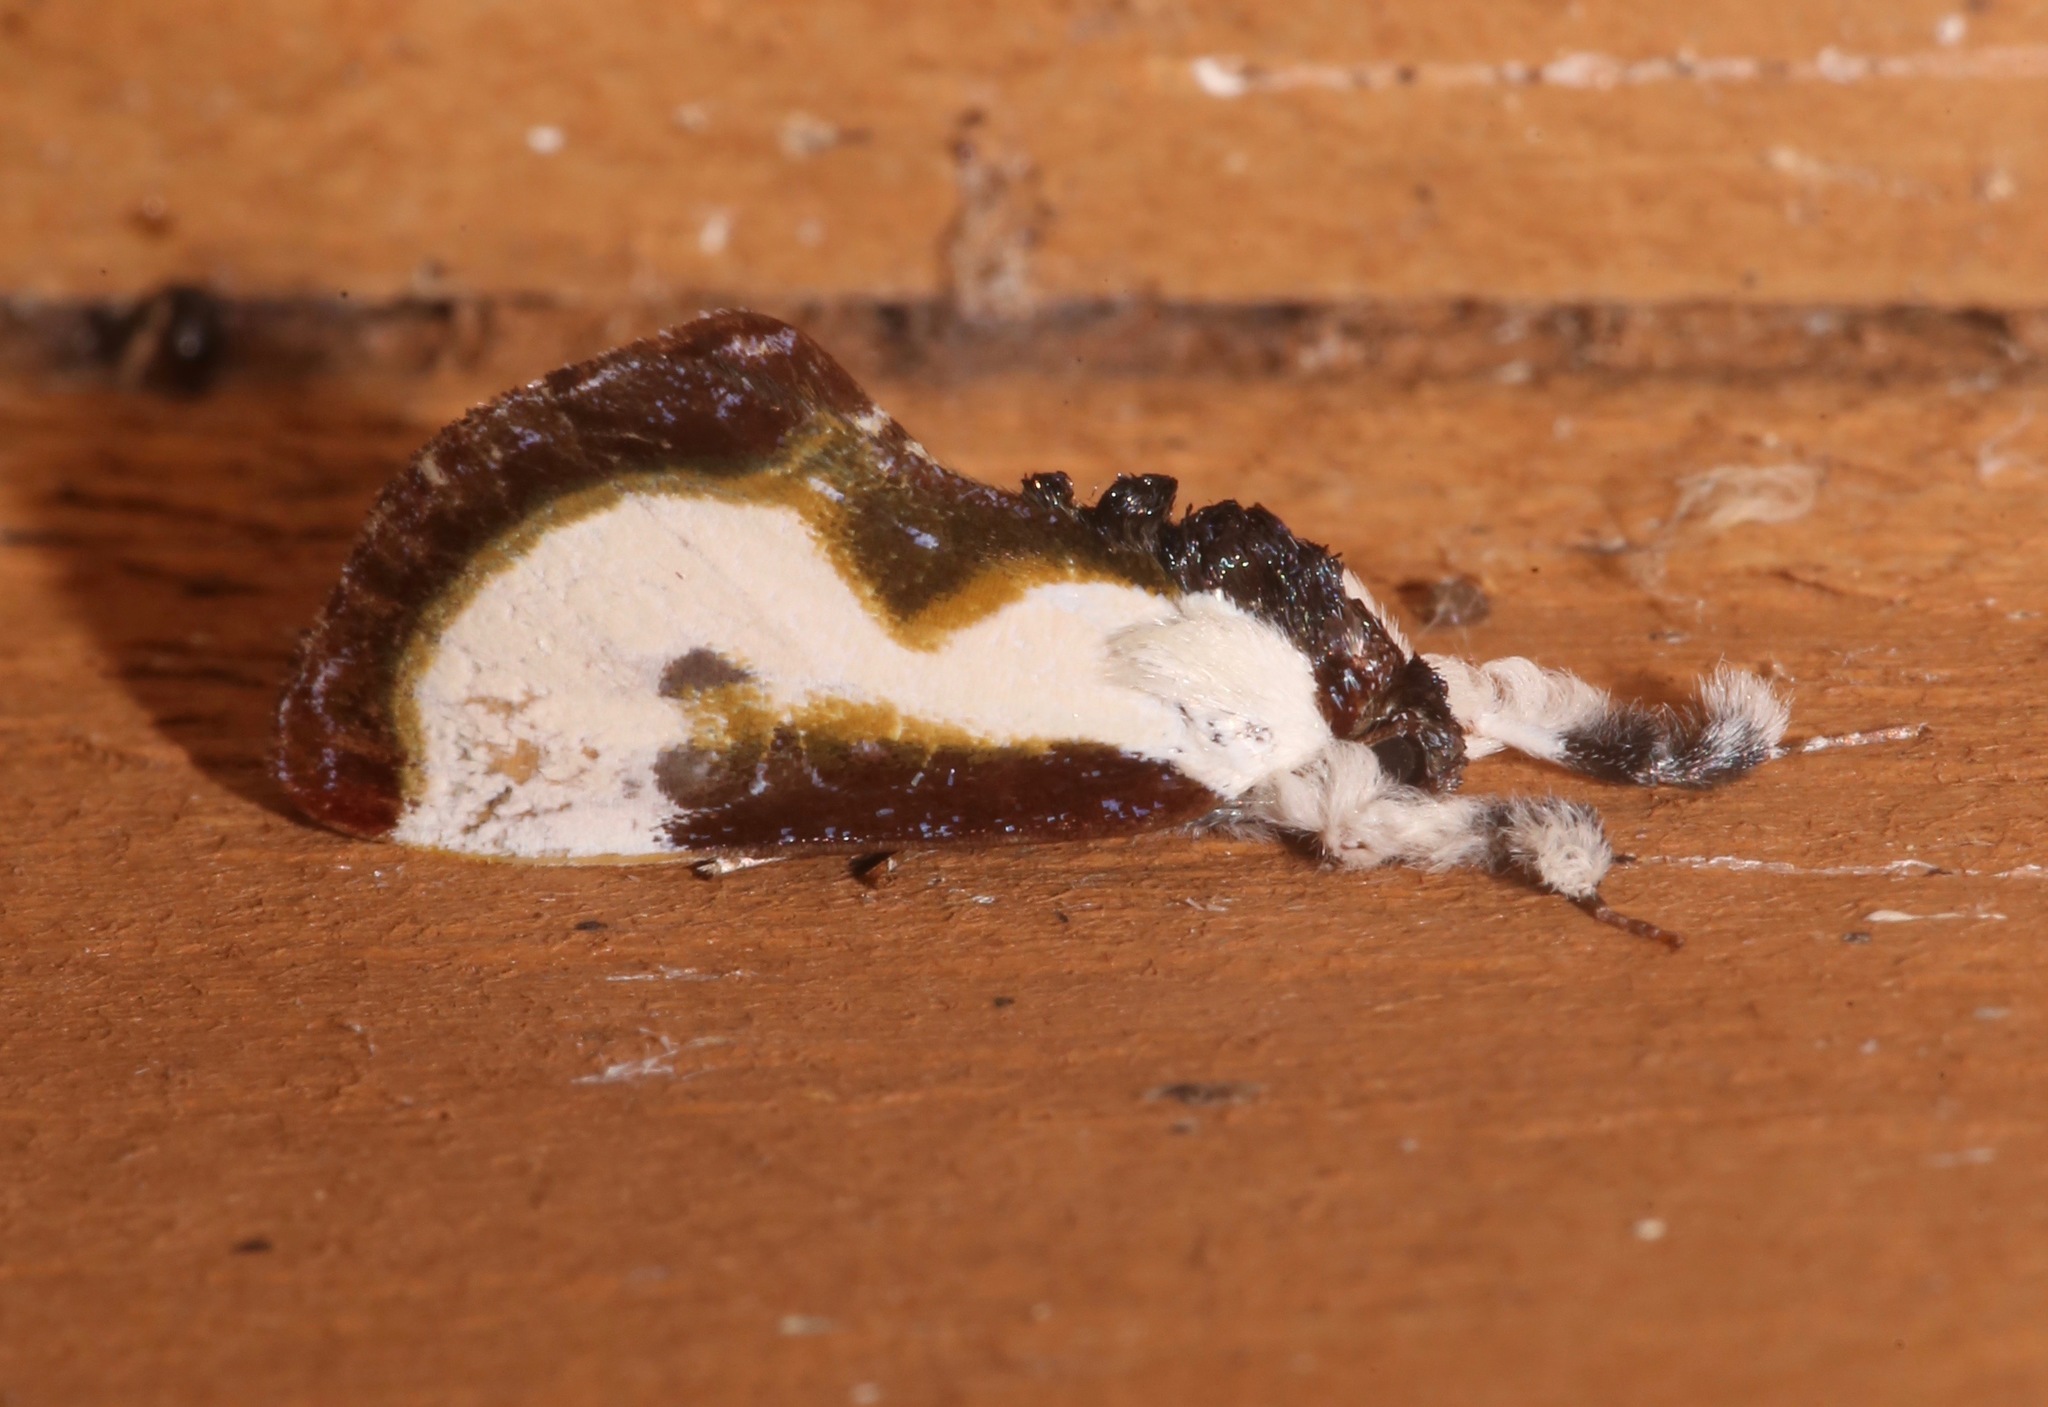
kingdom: Animalia
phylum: Arthropoda
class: Insecta
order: Lepidoptera
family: Noctuidae
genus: Eudryas
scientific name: Eudryas grata
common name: Beautiful wood-nymph
